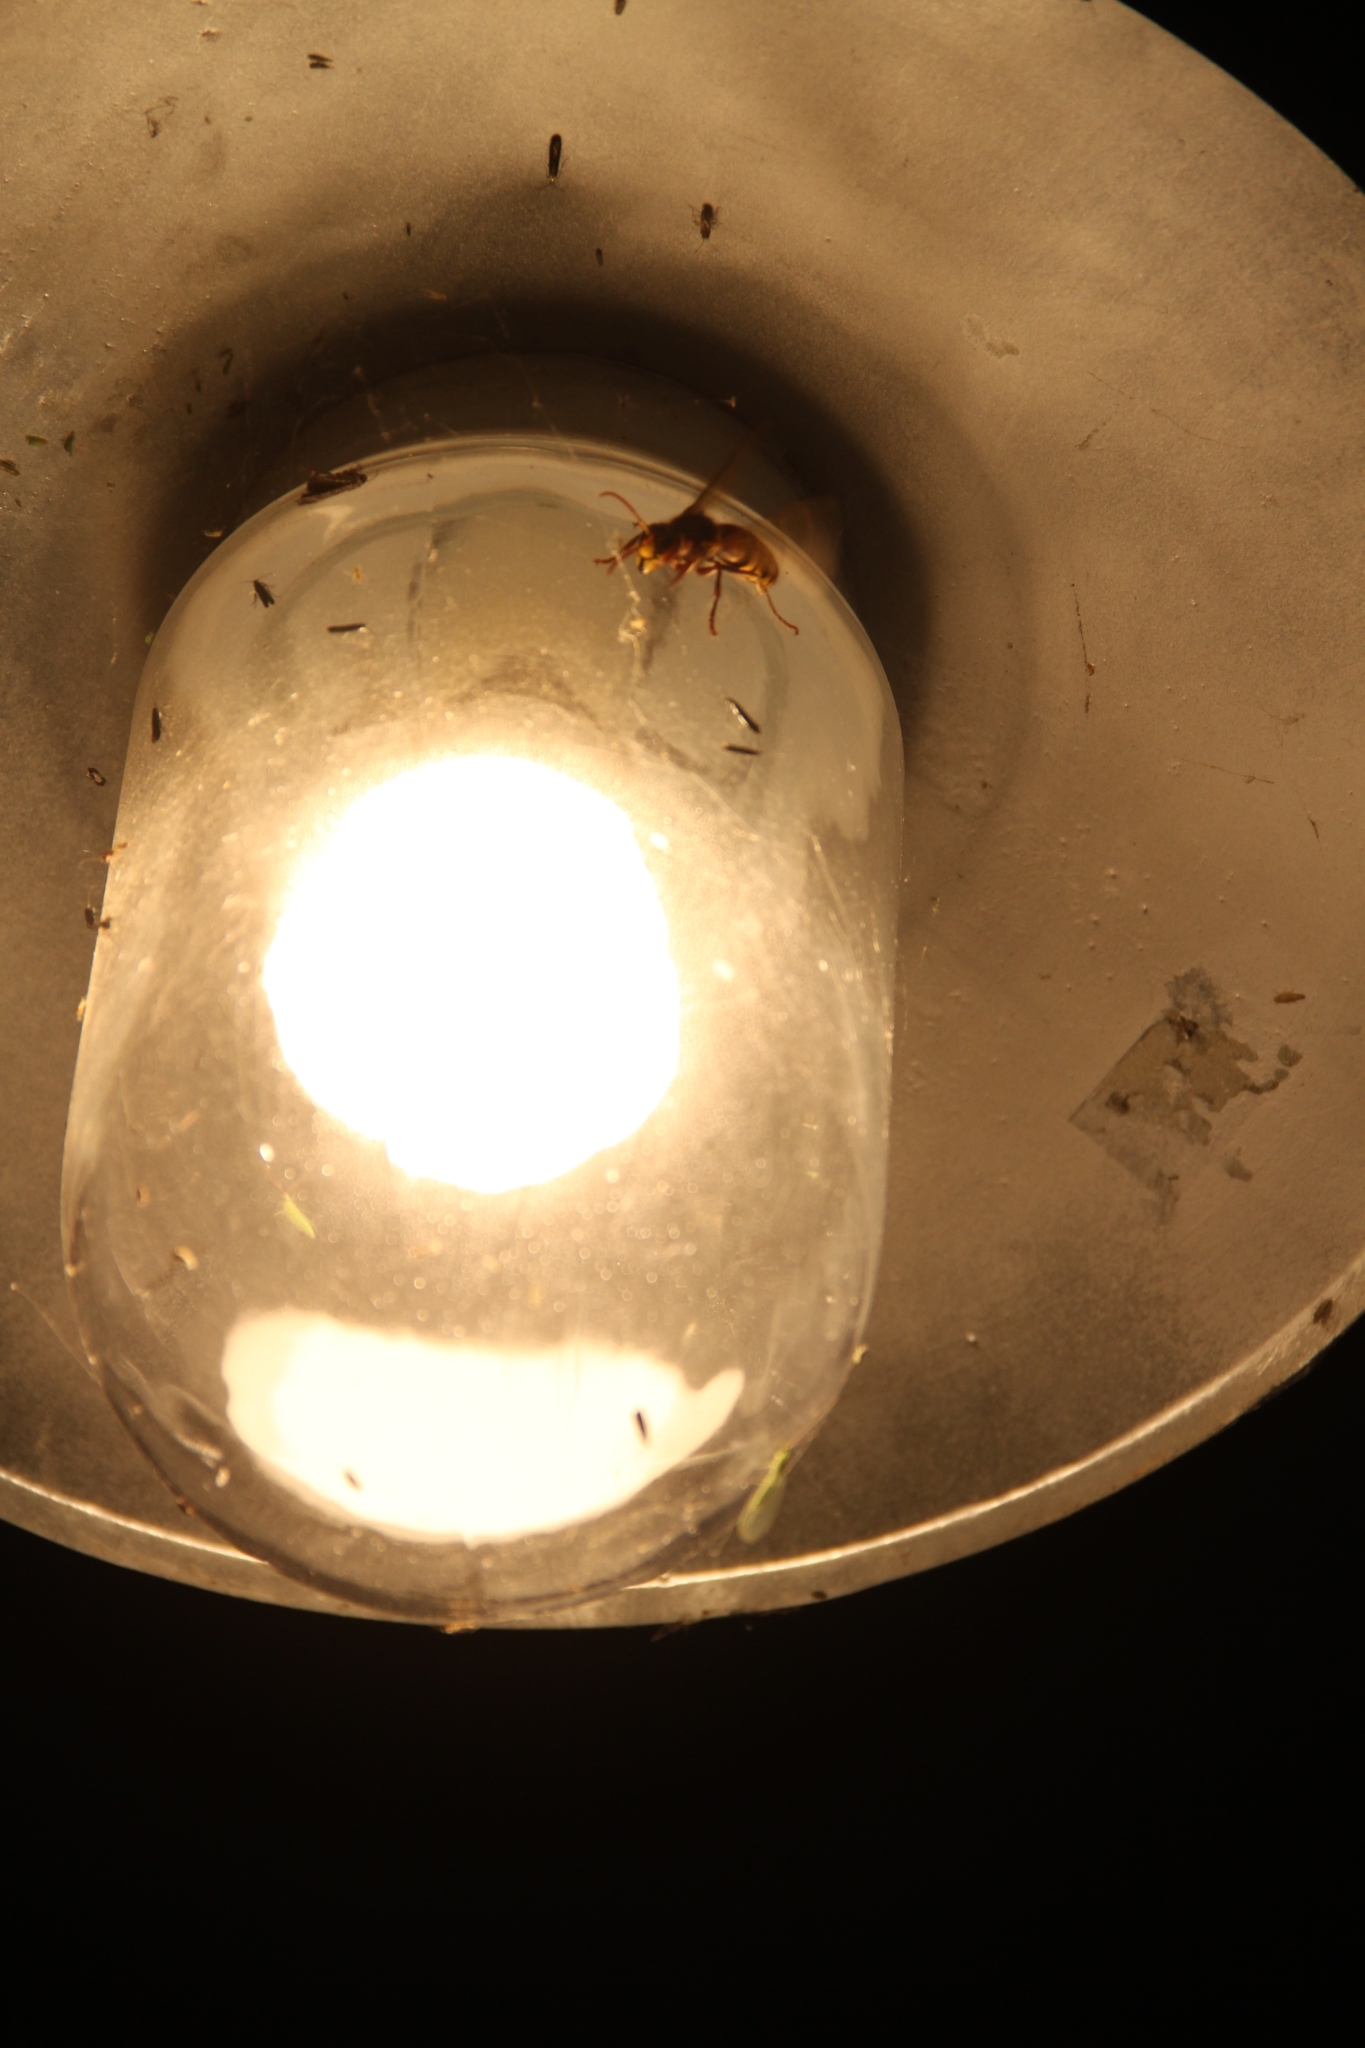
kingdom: Animalia
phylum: Arthropoda
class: Insecta
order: Hymenoptera
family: Vespidae
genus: Vespa
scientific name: Vespa crabro
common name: Hornet
